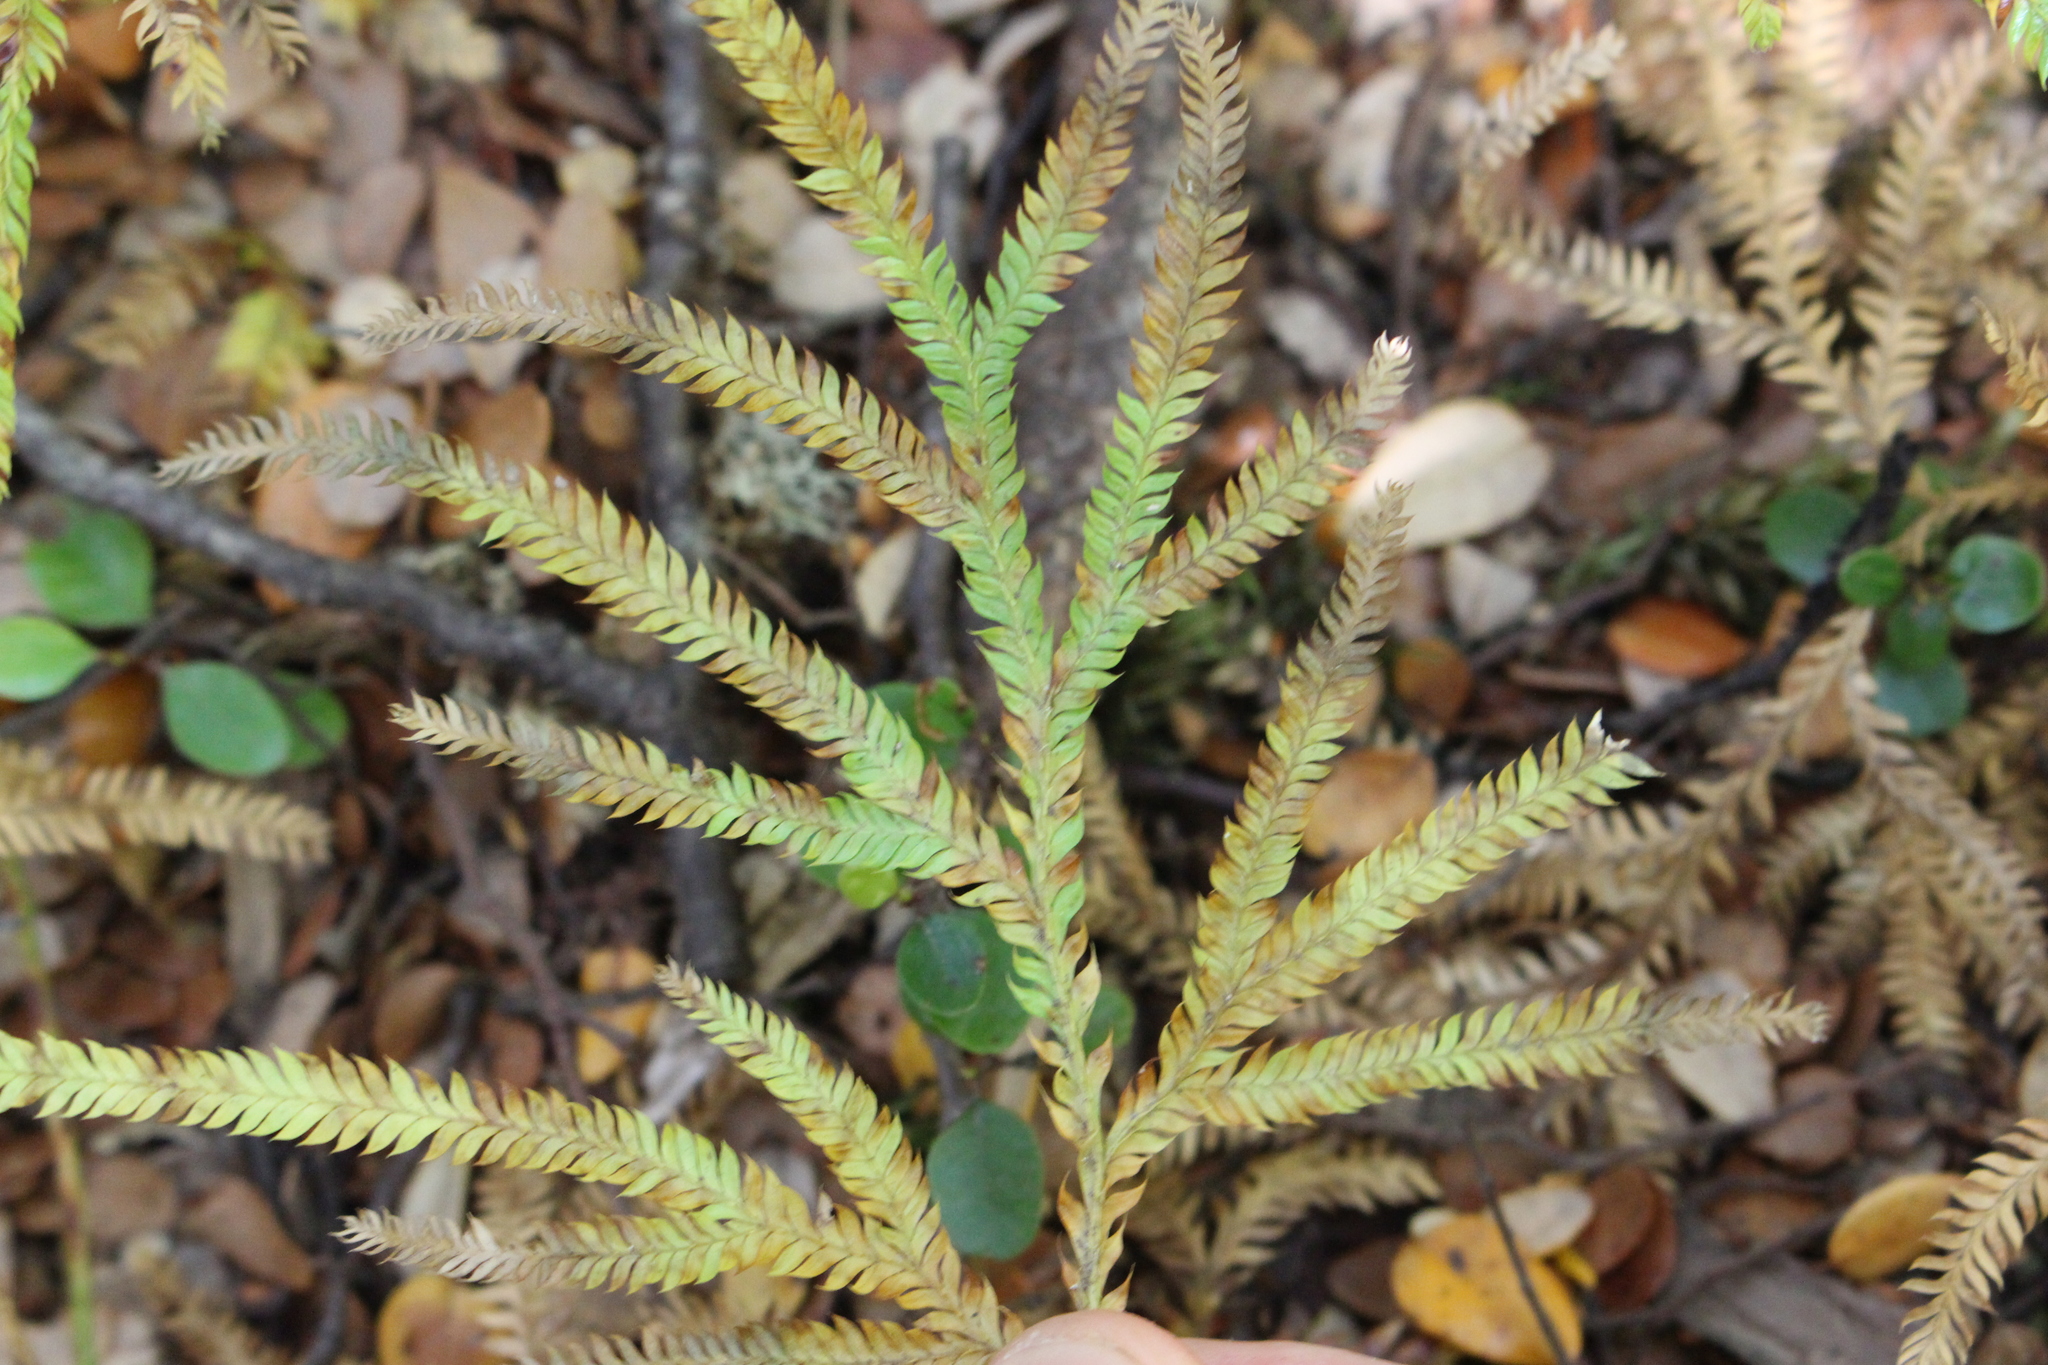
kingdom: Plantae
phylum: Tracheophyta
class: Lycopodiopsida
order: Lycopodiales
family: Lycopodiaceae
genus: Lycopodium
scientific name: Lycopodium volubile
